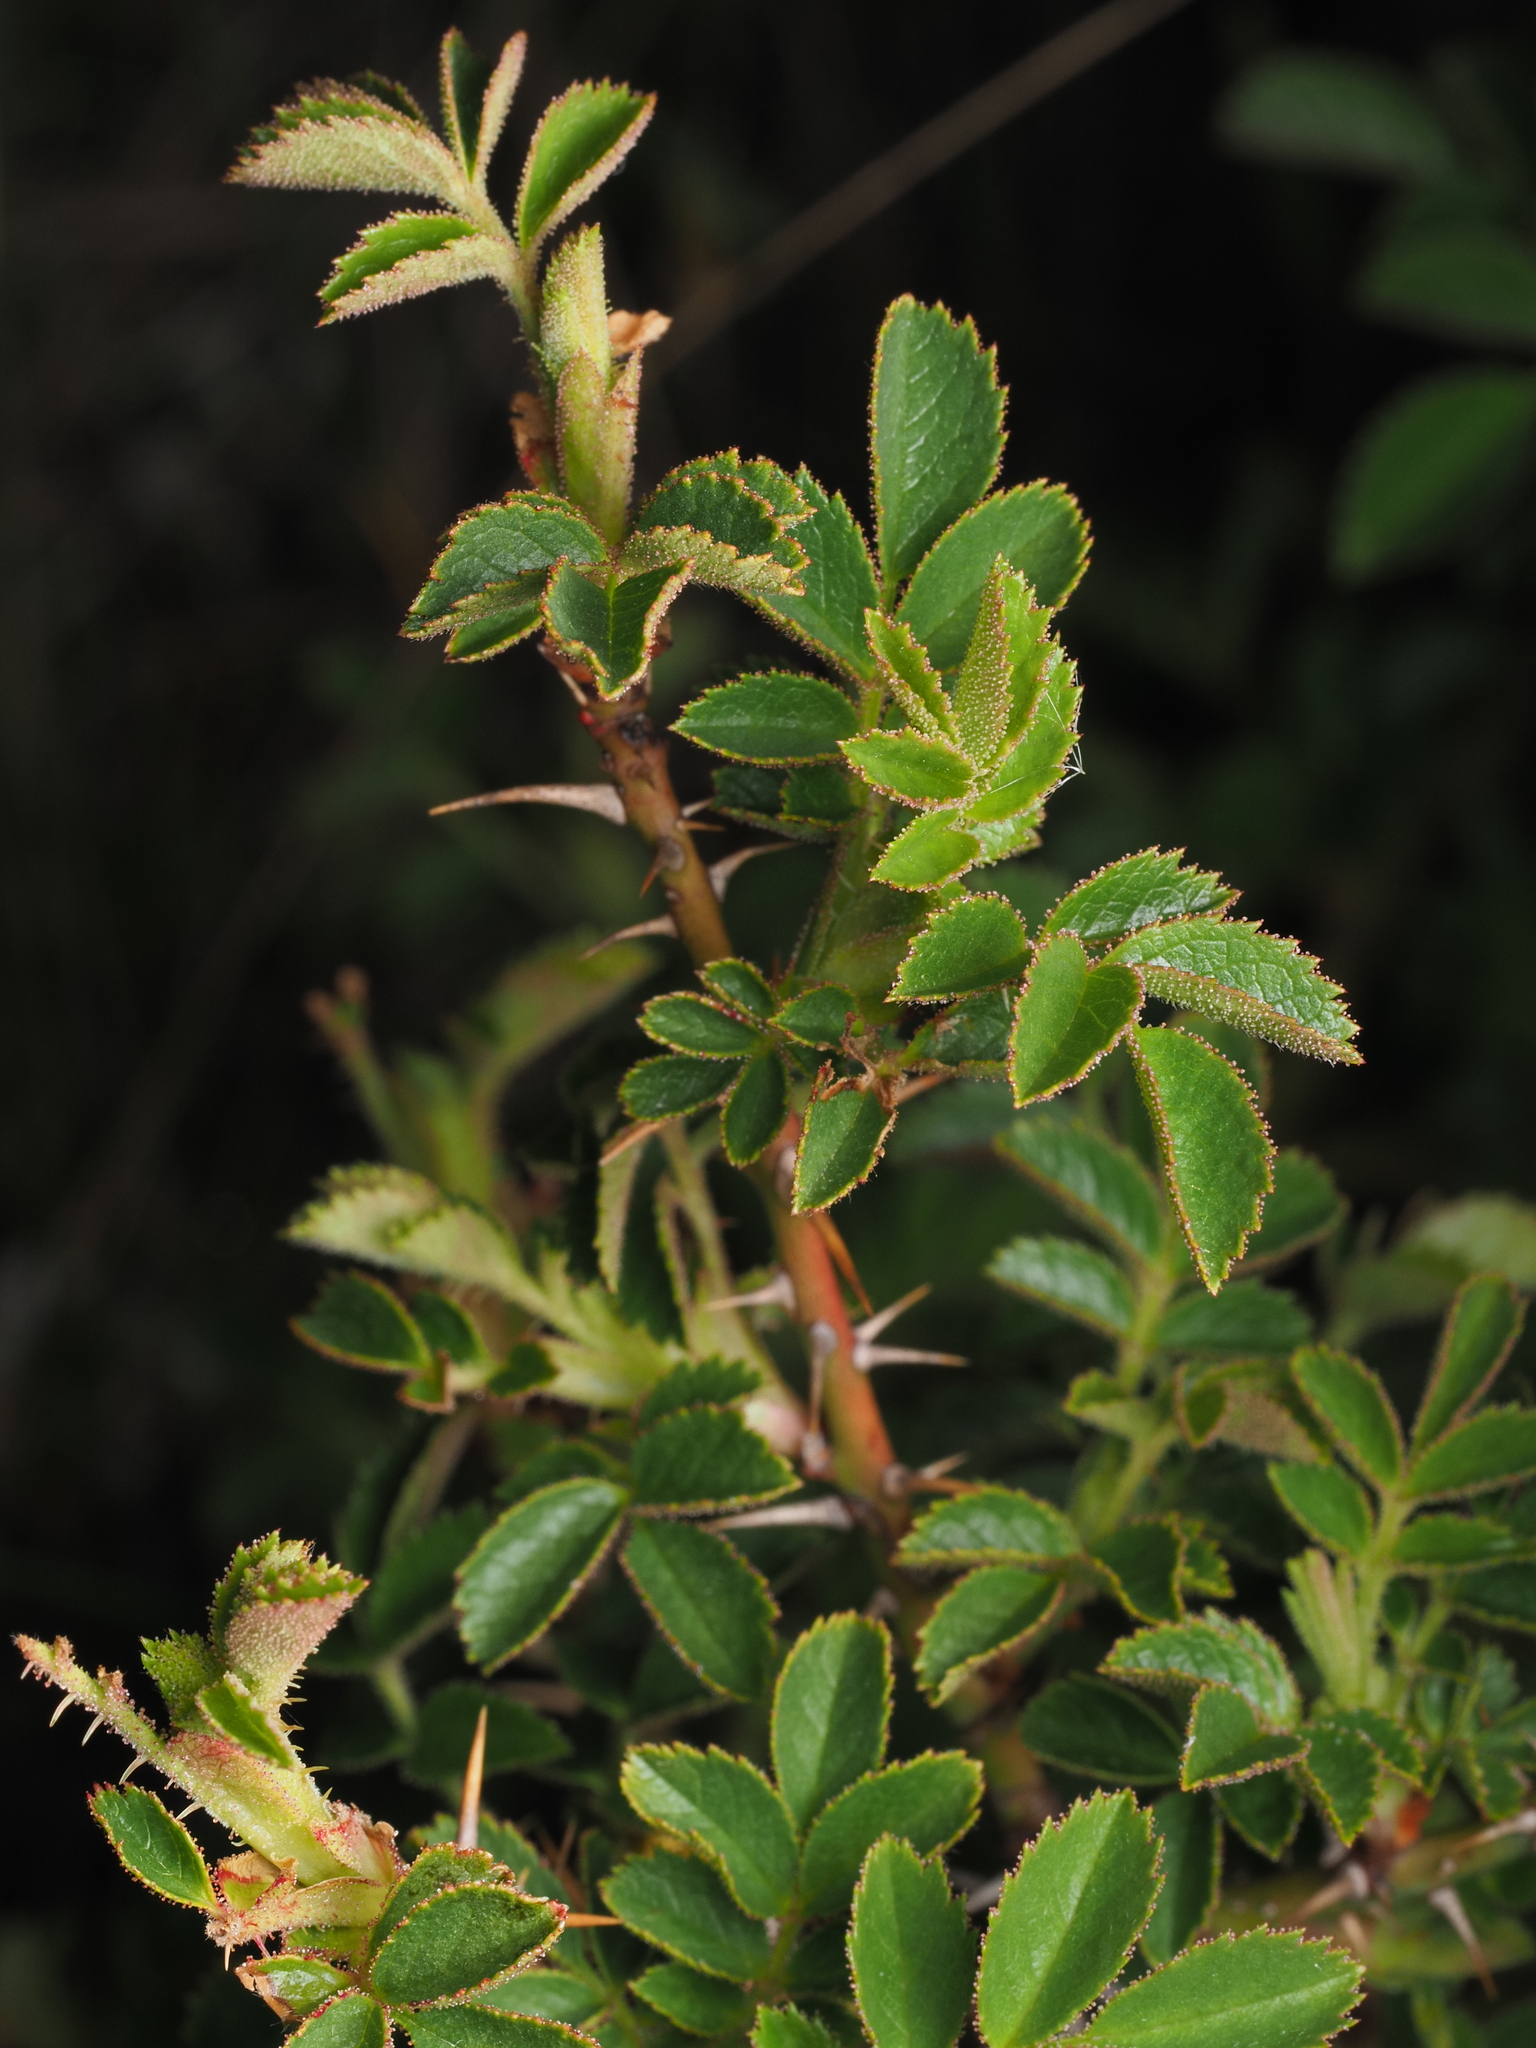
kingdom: Plantae
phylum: Tracheophyta
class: Magnoliopsida
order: Rosales
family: Rosaceae
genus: Rosa
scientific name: Rosa rubiginosa
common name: Sweet-briar
